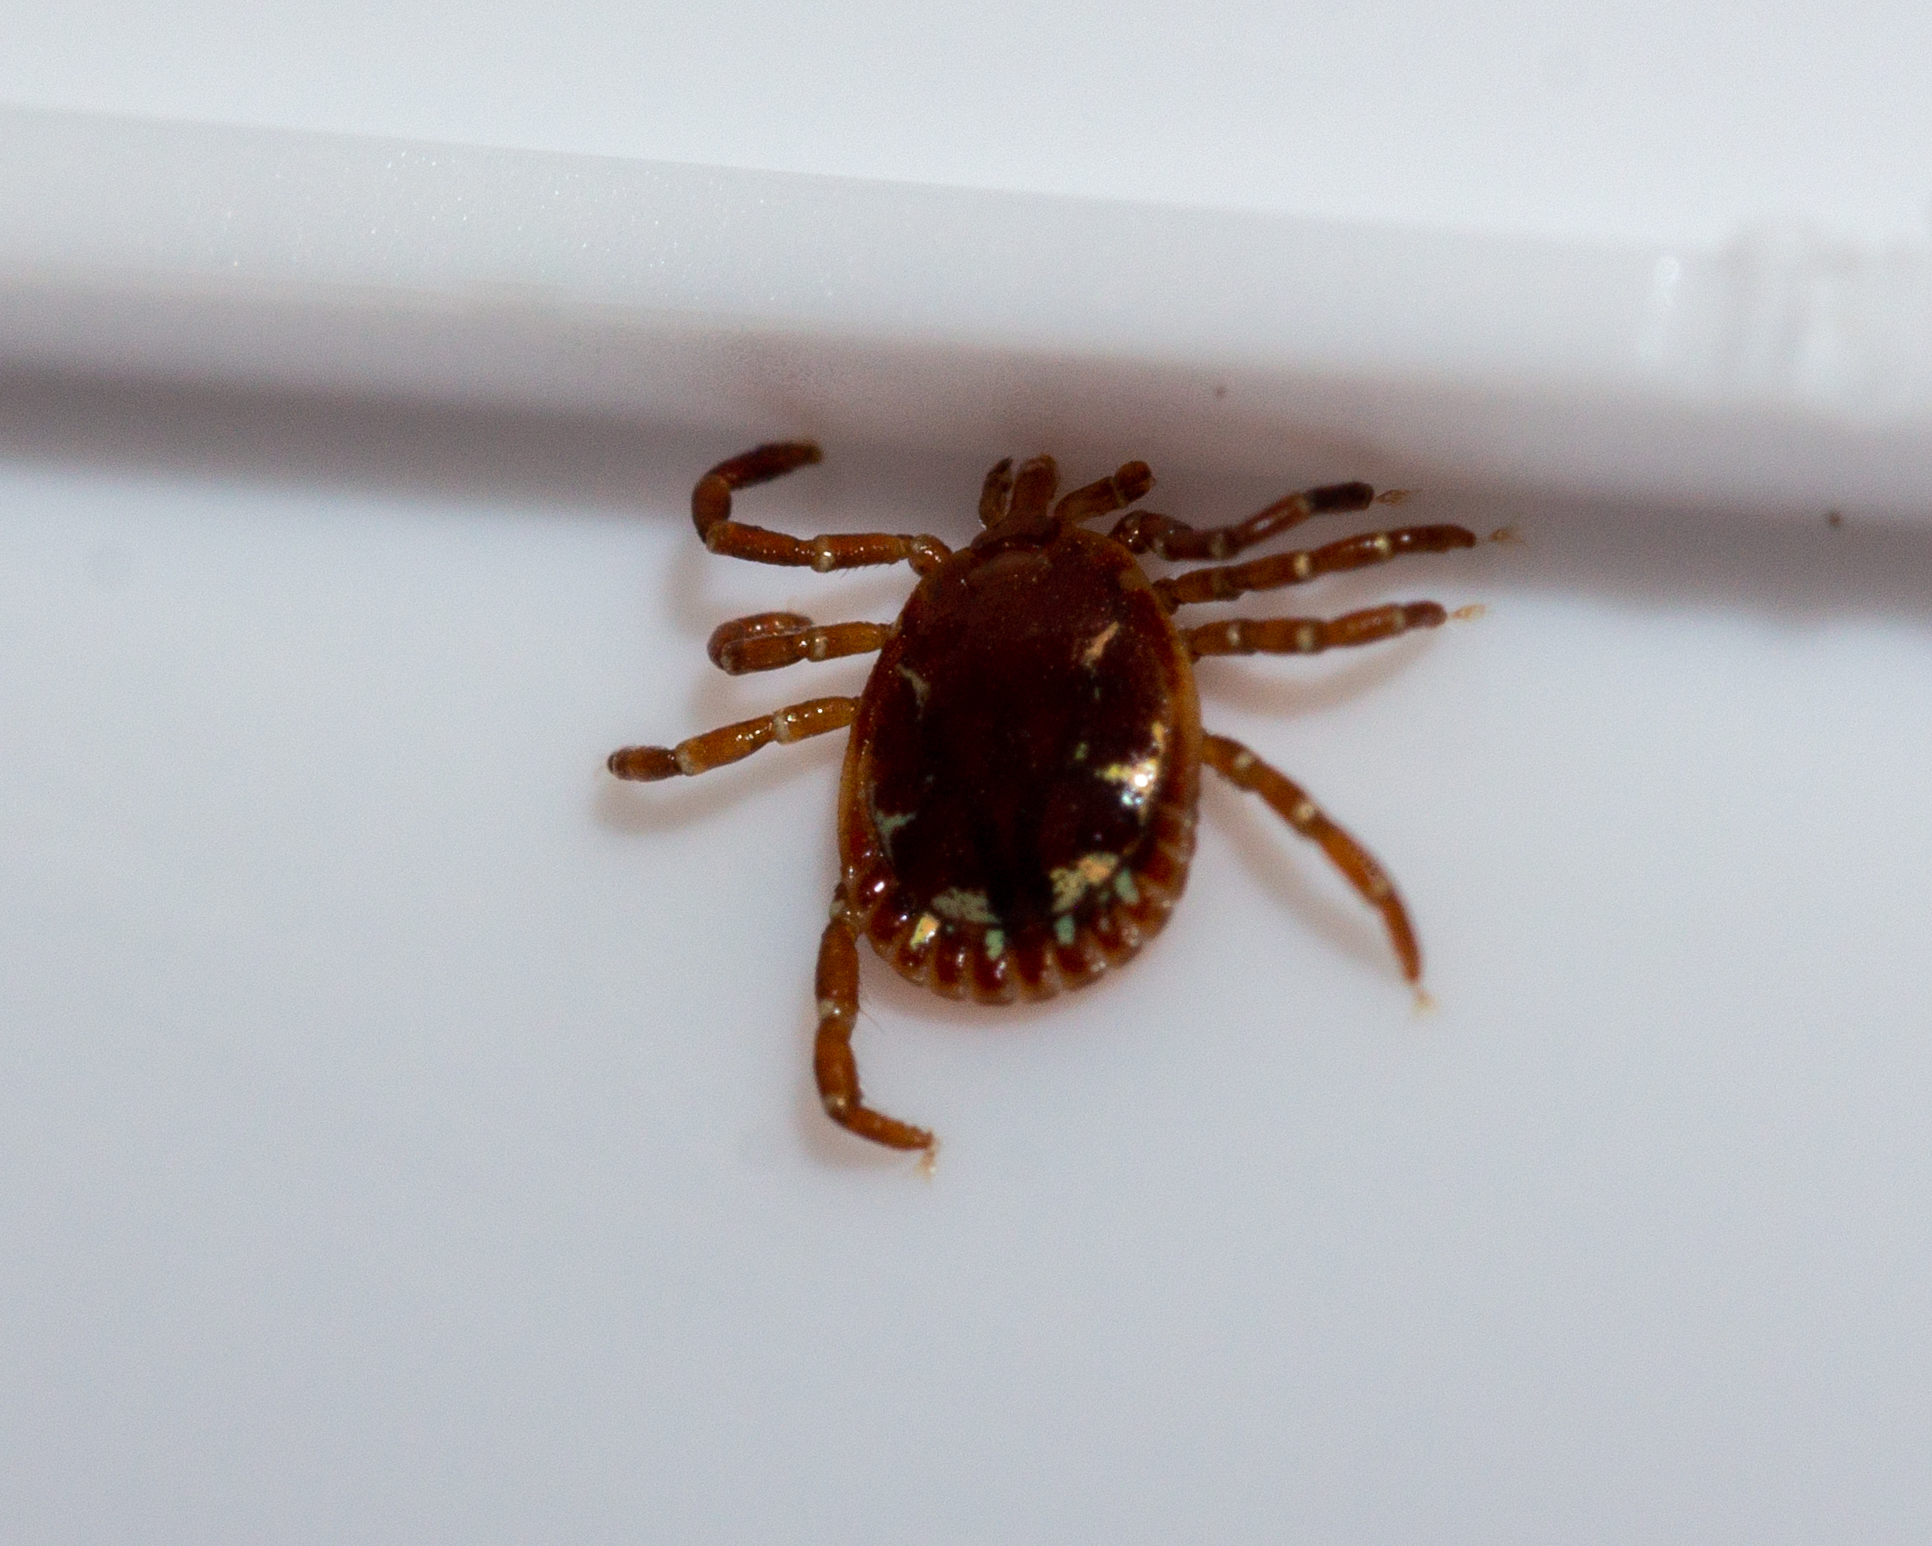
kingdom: Animalia
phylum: Arthropoda
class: Arachnida
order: Ixodida
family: Ixodidae
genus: Amblyomma
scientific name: Amblyomma americanum
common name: Lone star tick
